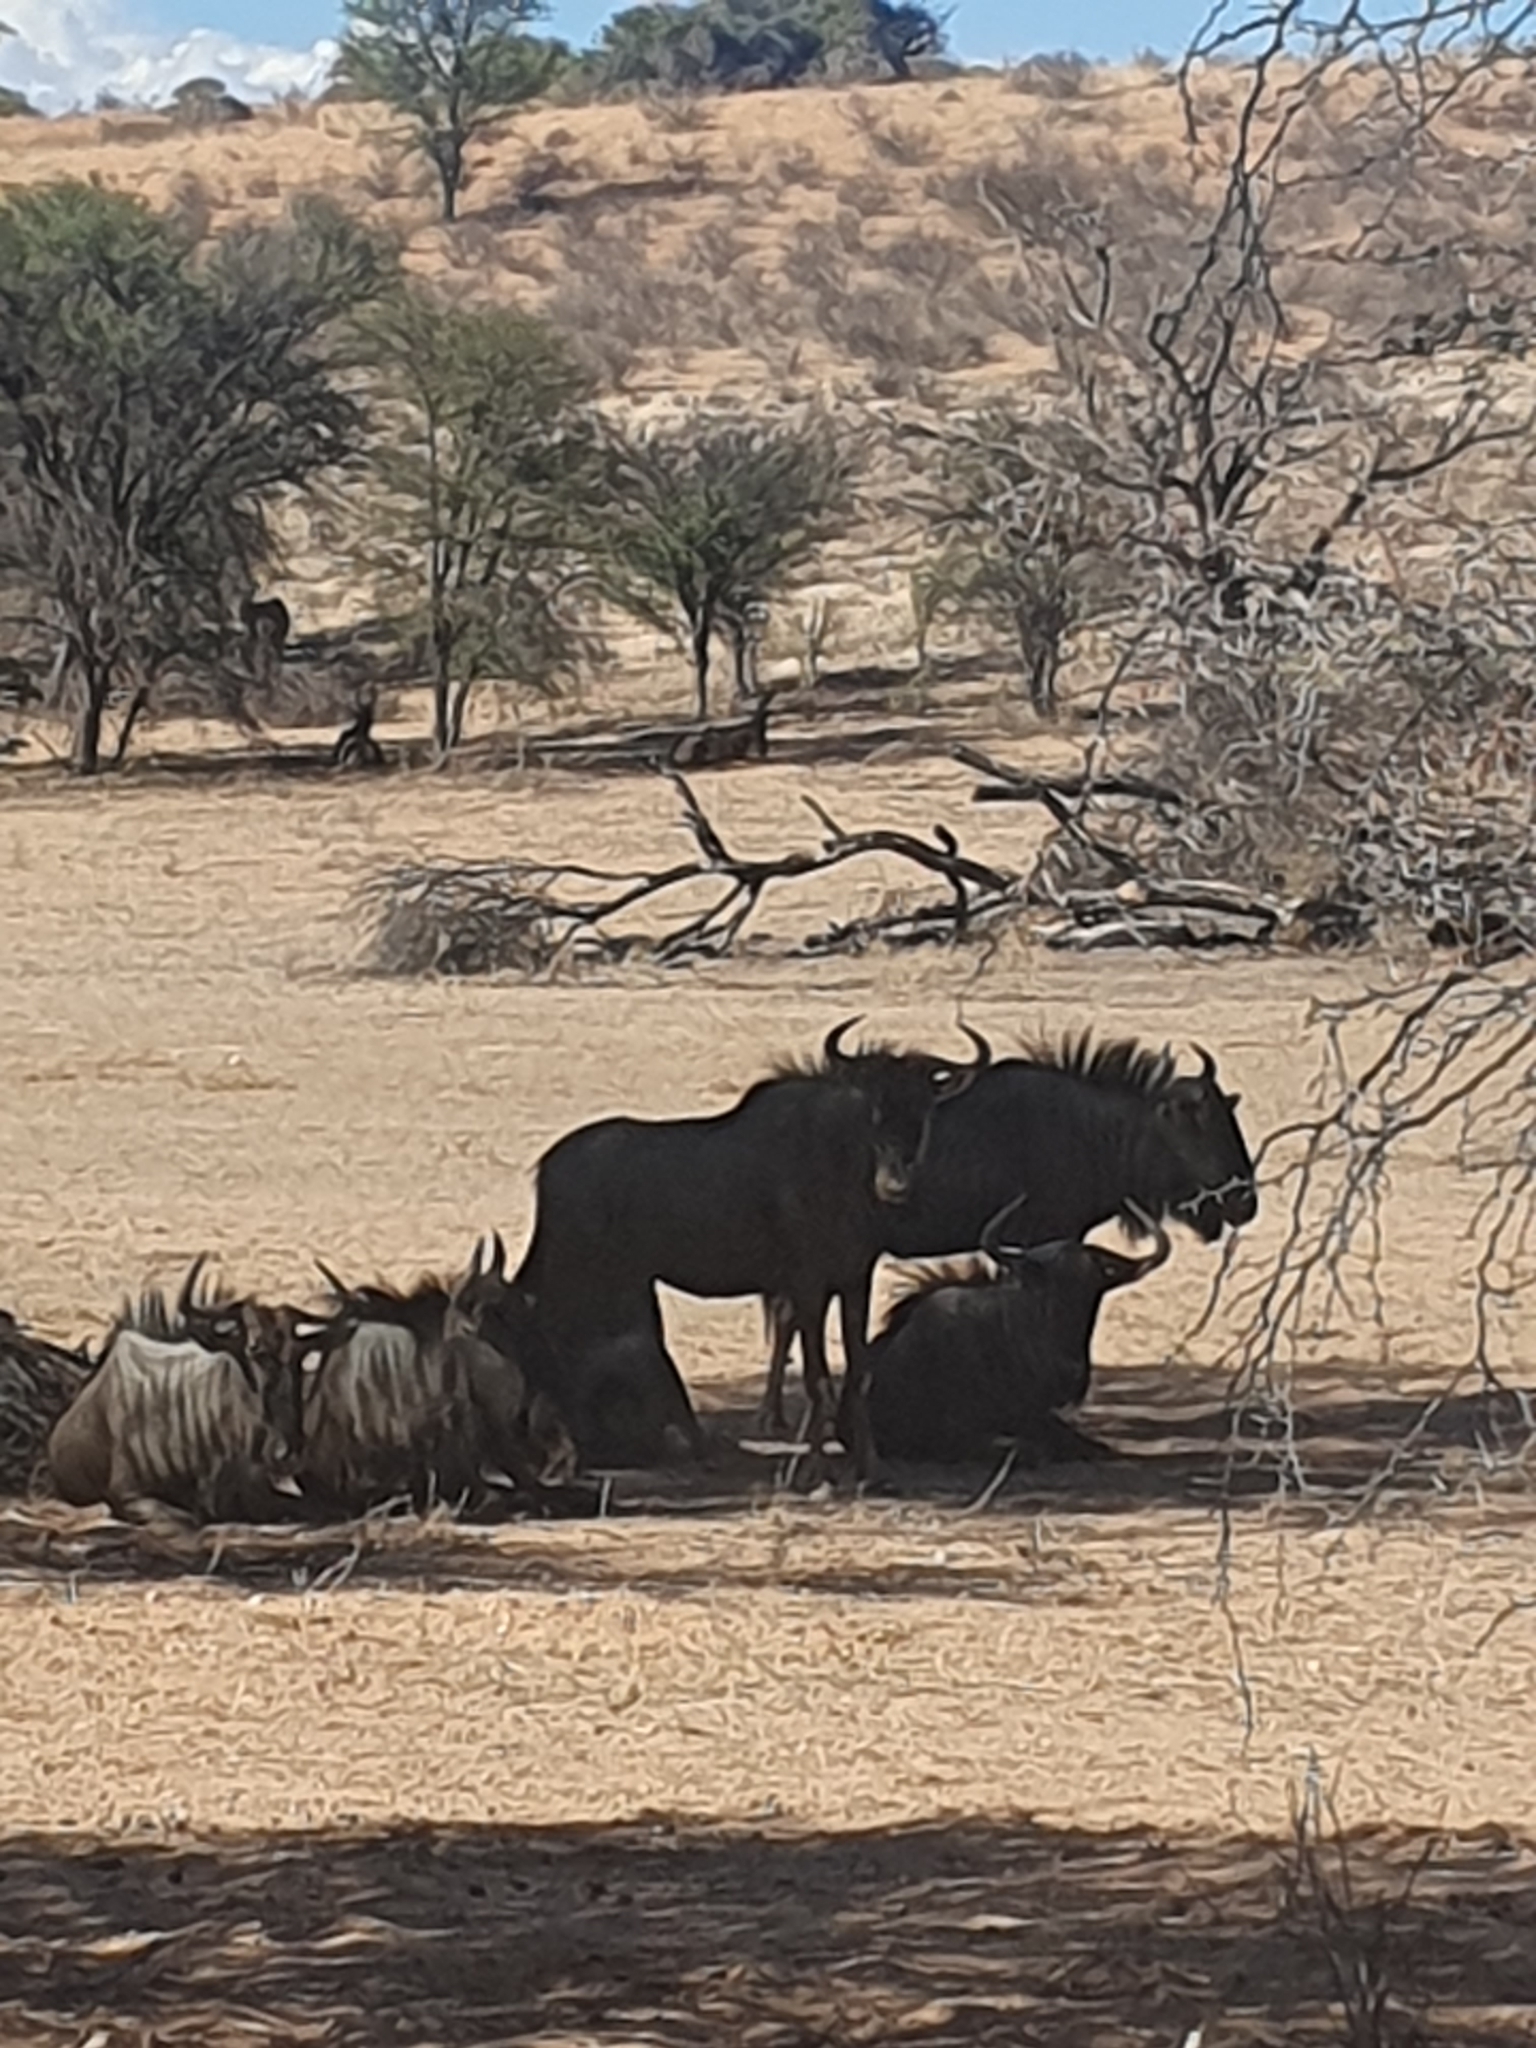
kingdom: Animalia
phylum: Chordata
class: Mammalia
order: Artiodactyla
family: Bovidae
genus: Connochaetes
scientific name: Connochaetes taurinus
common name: Blue wildebeest
